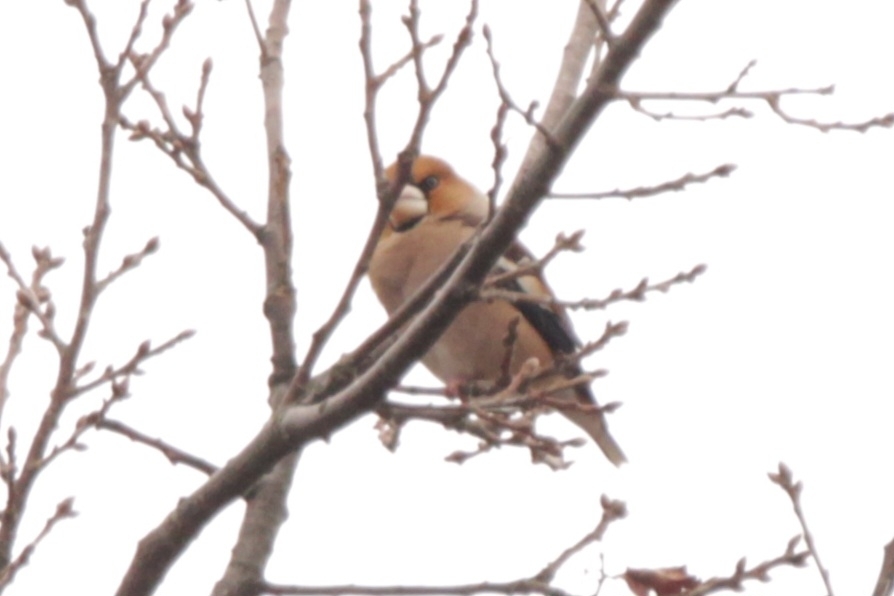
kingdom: Animalia
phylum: Chordata
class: Aves
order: Passeriformes
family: Fringillidae
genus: Coccothraustes
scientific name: Coccothraustes coccothraustes
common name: Hawfinch
